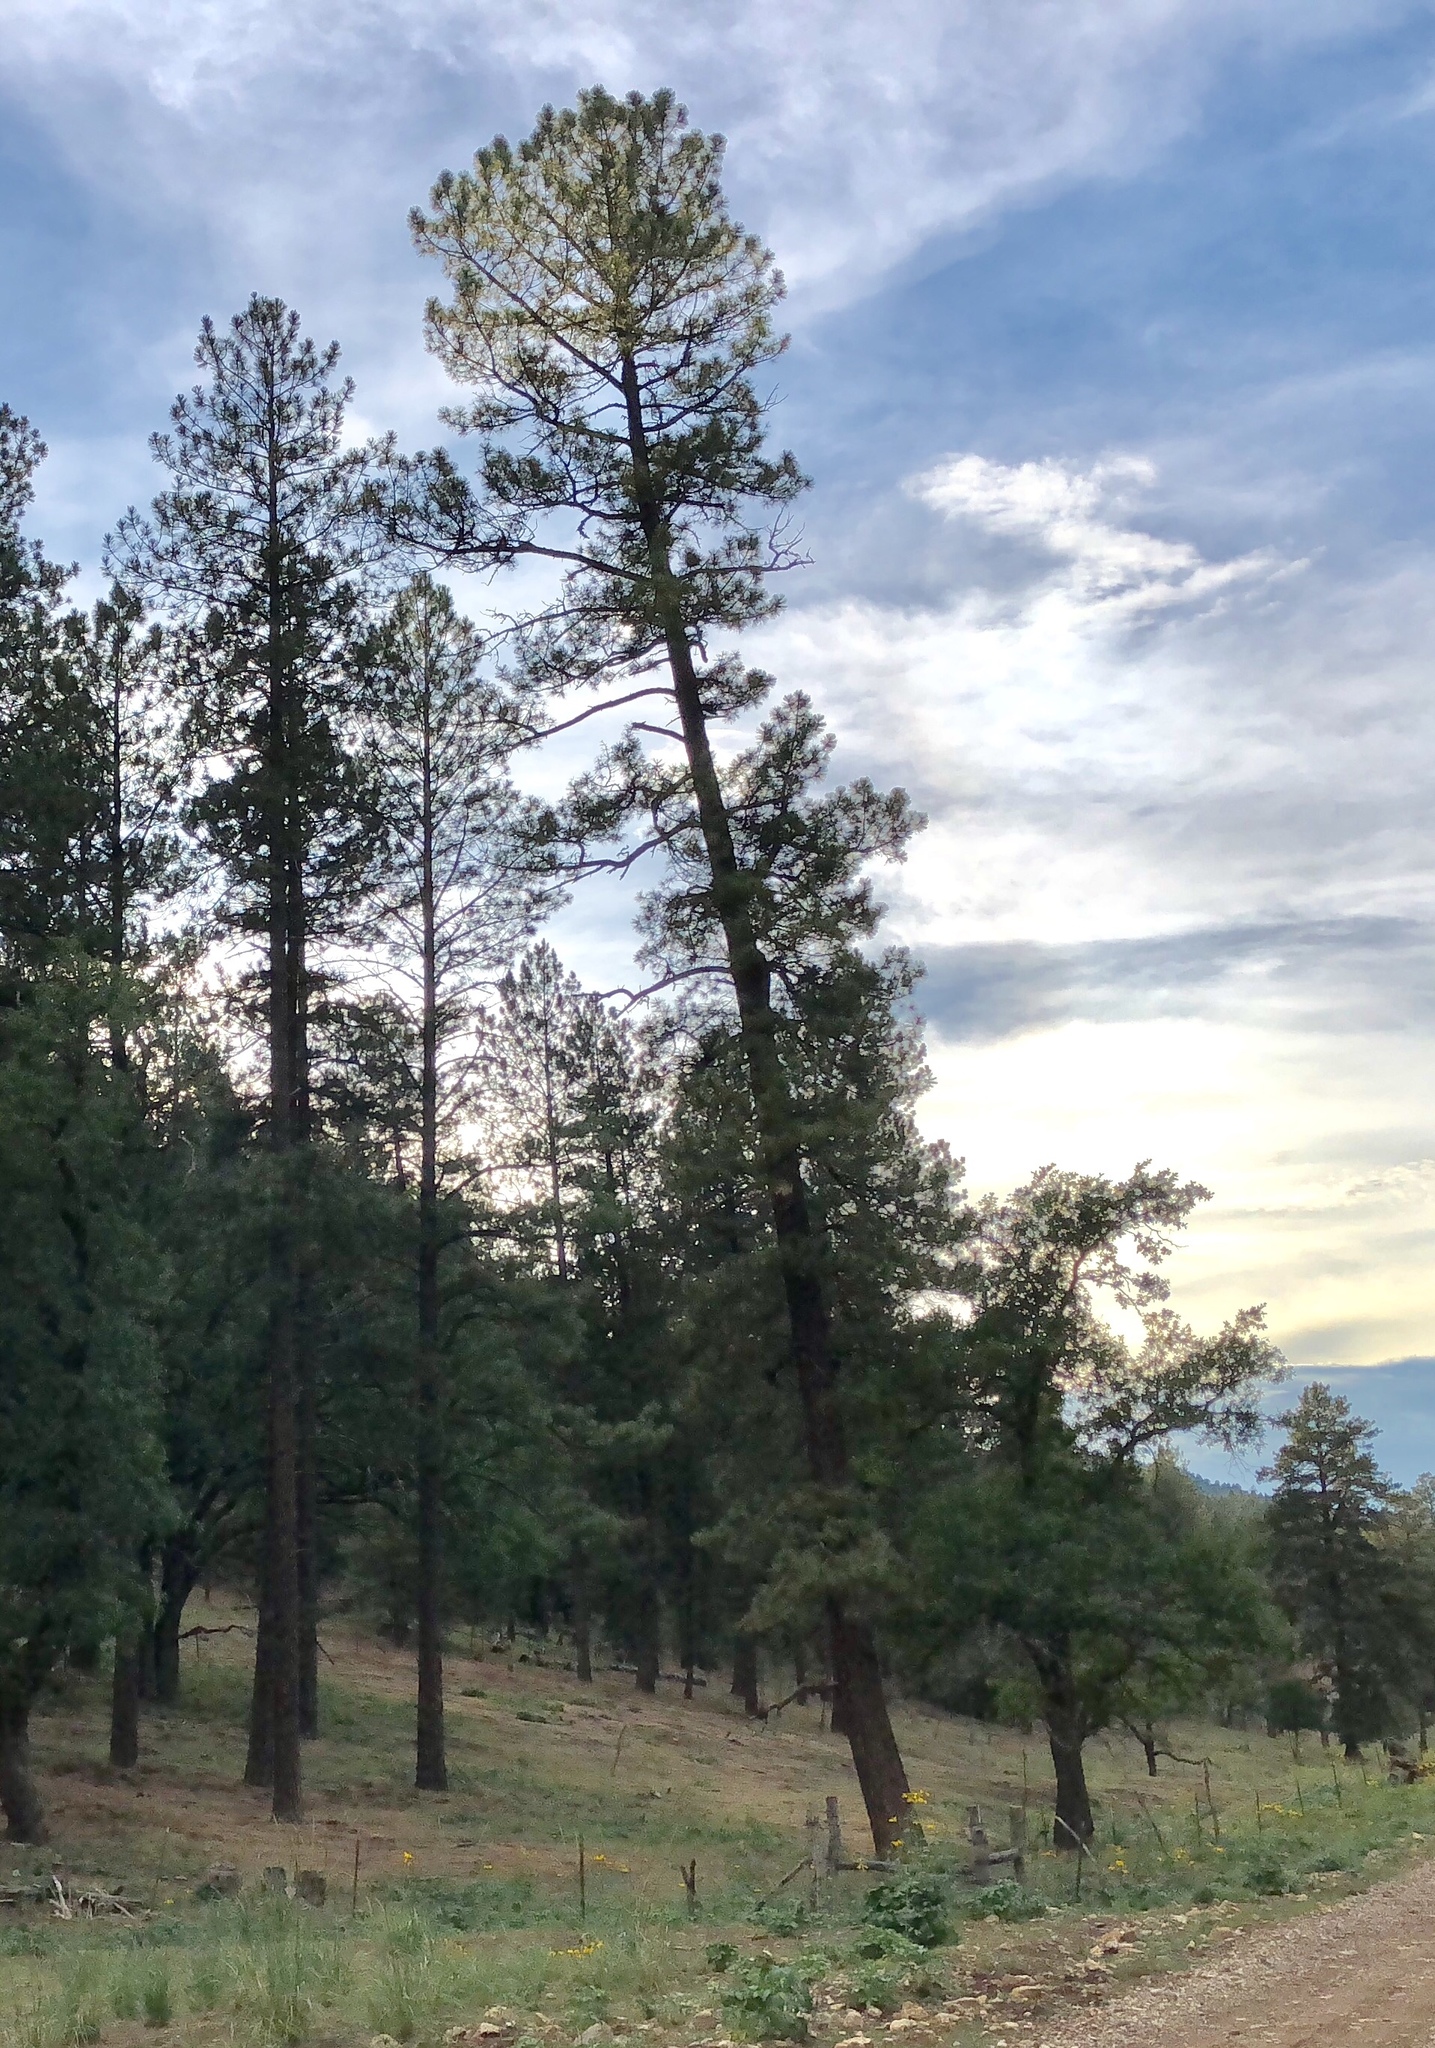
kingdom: Plantae
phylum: Tracheophyta
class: Pinopsida
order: Pinales
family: Pinaceae
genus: Pinus
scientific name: Pinus ponderosa
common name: Western yellow-pine
